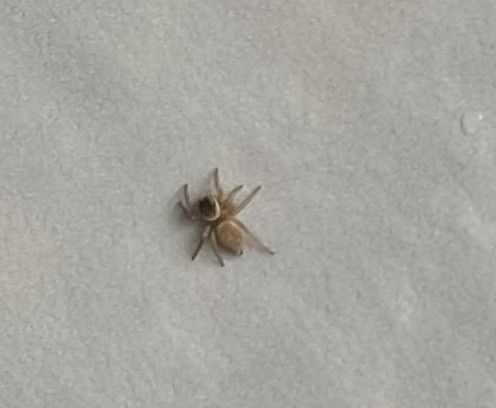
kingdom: Animalia
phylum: Arthropoda
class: Arachnida
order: Araneae
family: Salticidae
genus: Maratus
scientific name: Maratus griseus
